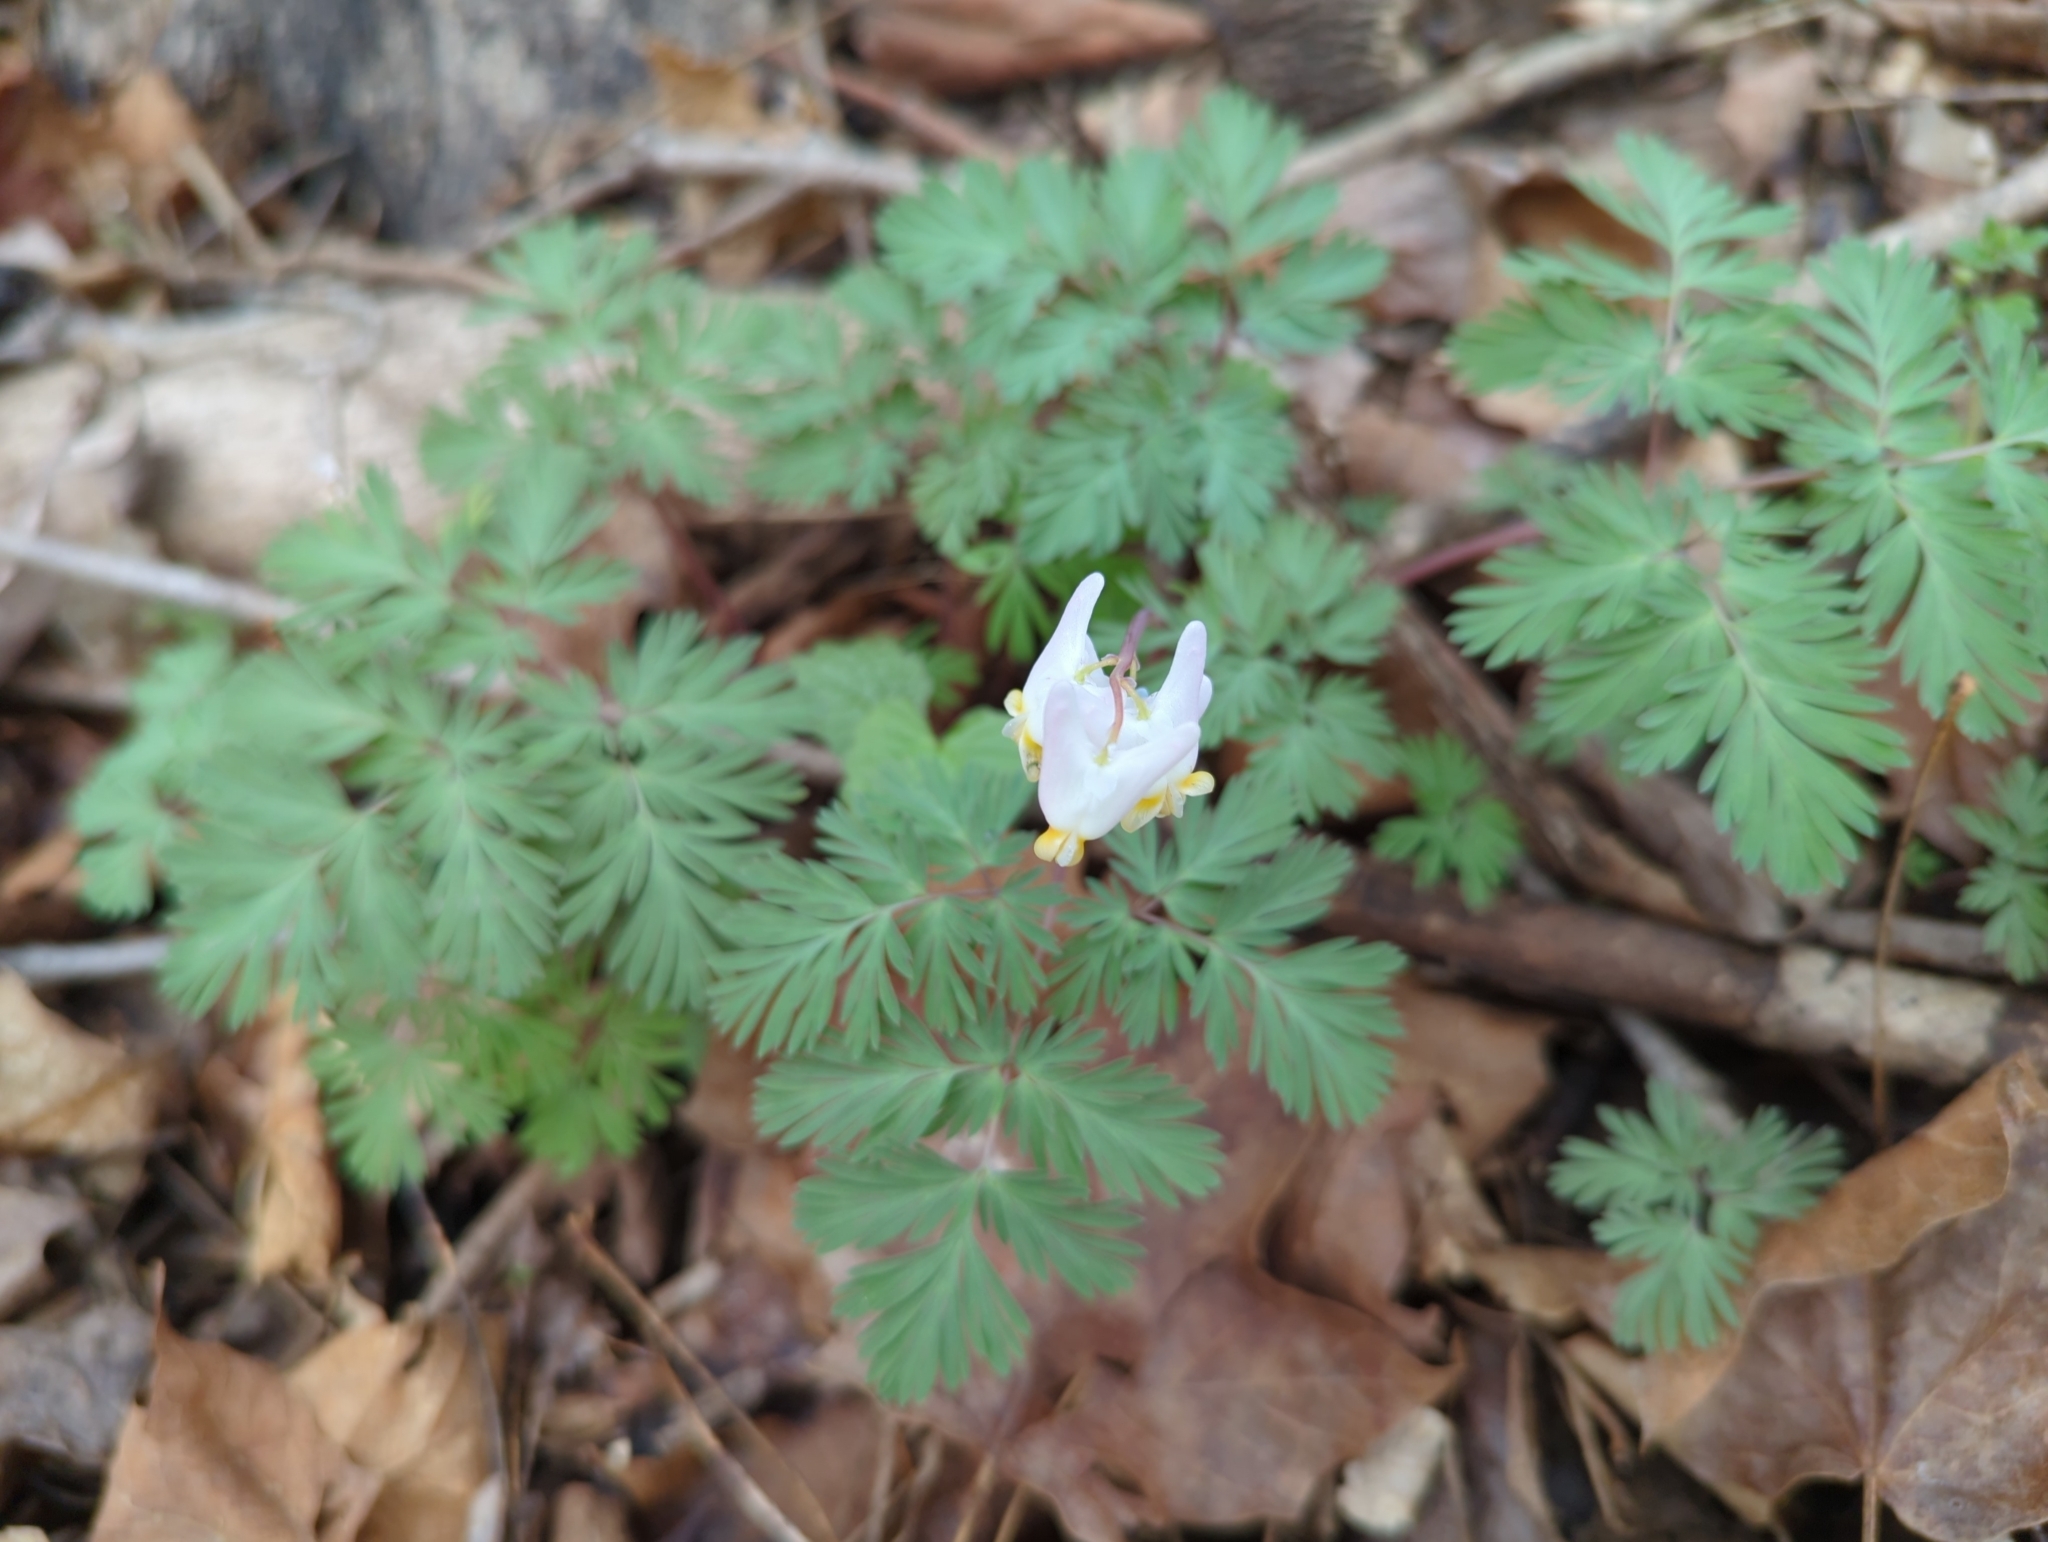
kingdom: Plantae
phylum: Tracheophyta
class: Magnoliopsida
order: Ranunculales
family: Papaveraceae
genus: Dicentra
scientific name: Dicentra cucullaria
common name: Dutchman's breeches
